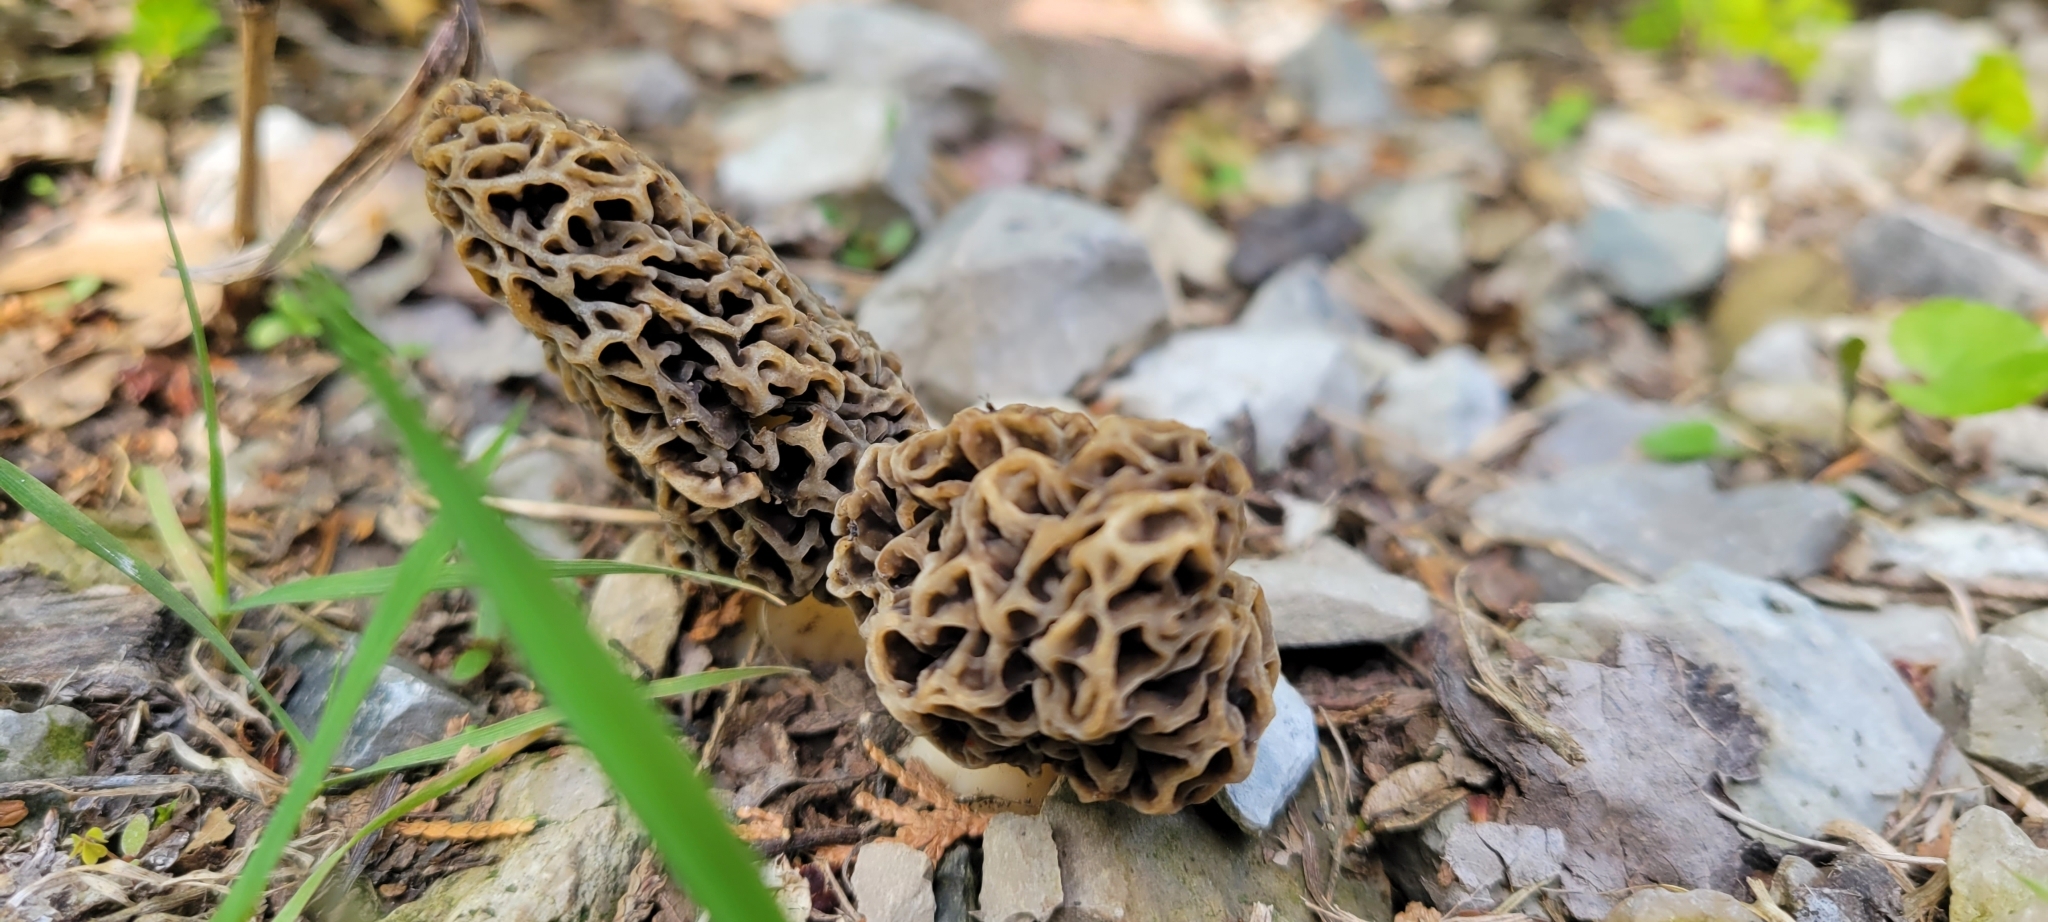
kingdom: Fungi
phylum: Ascomycota
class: Pezizomycetes
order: Pezizales
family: Morchellaceae
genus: Morchella
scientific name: Morchella americana
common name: White morel
